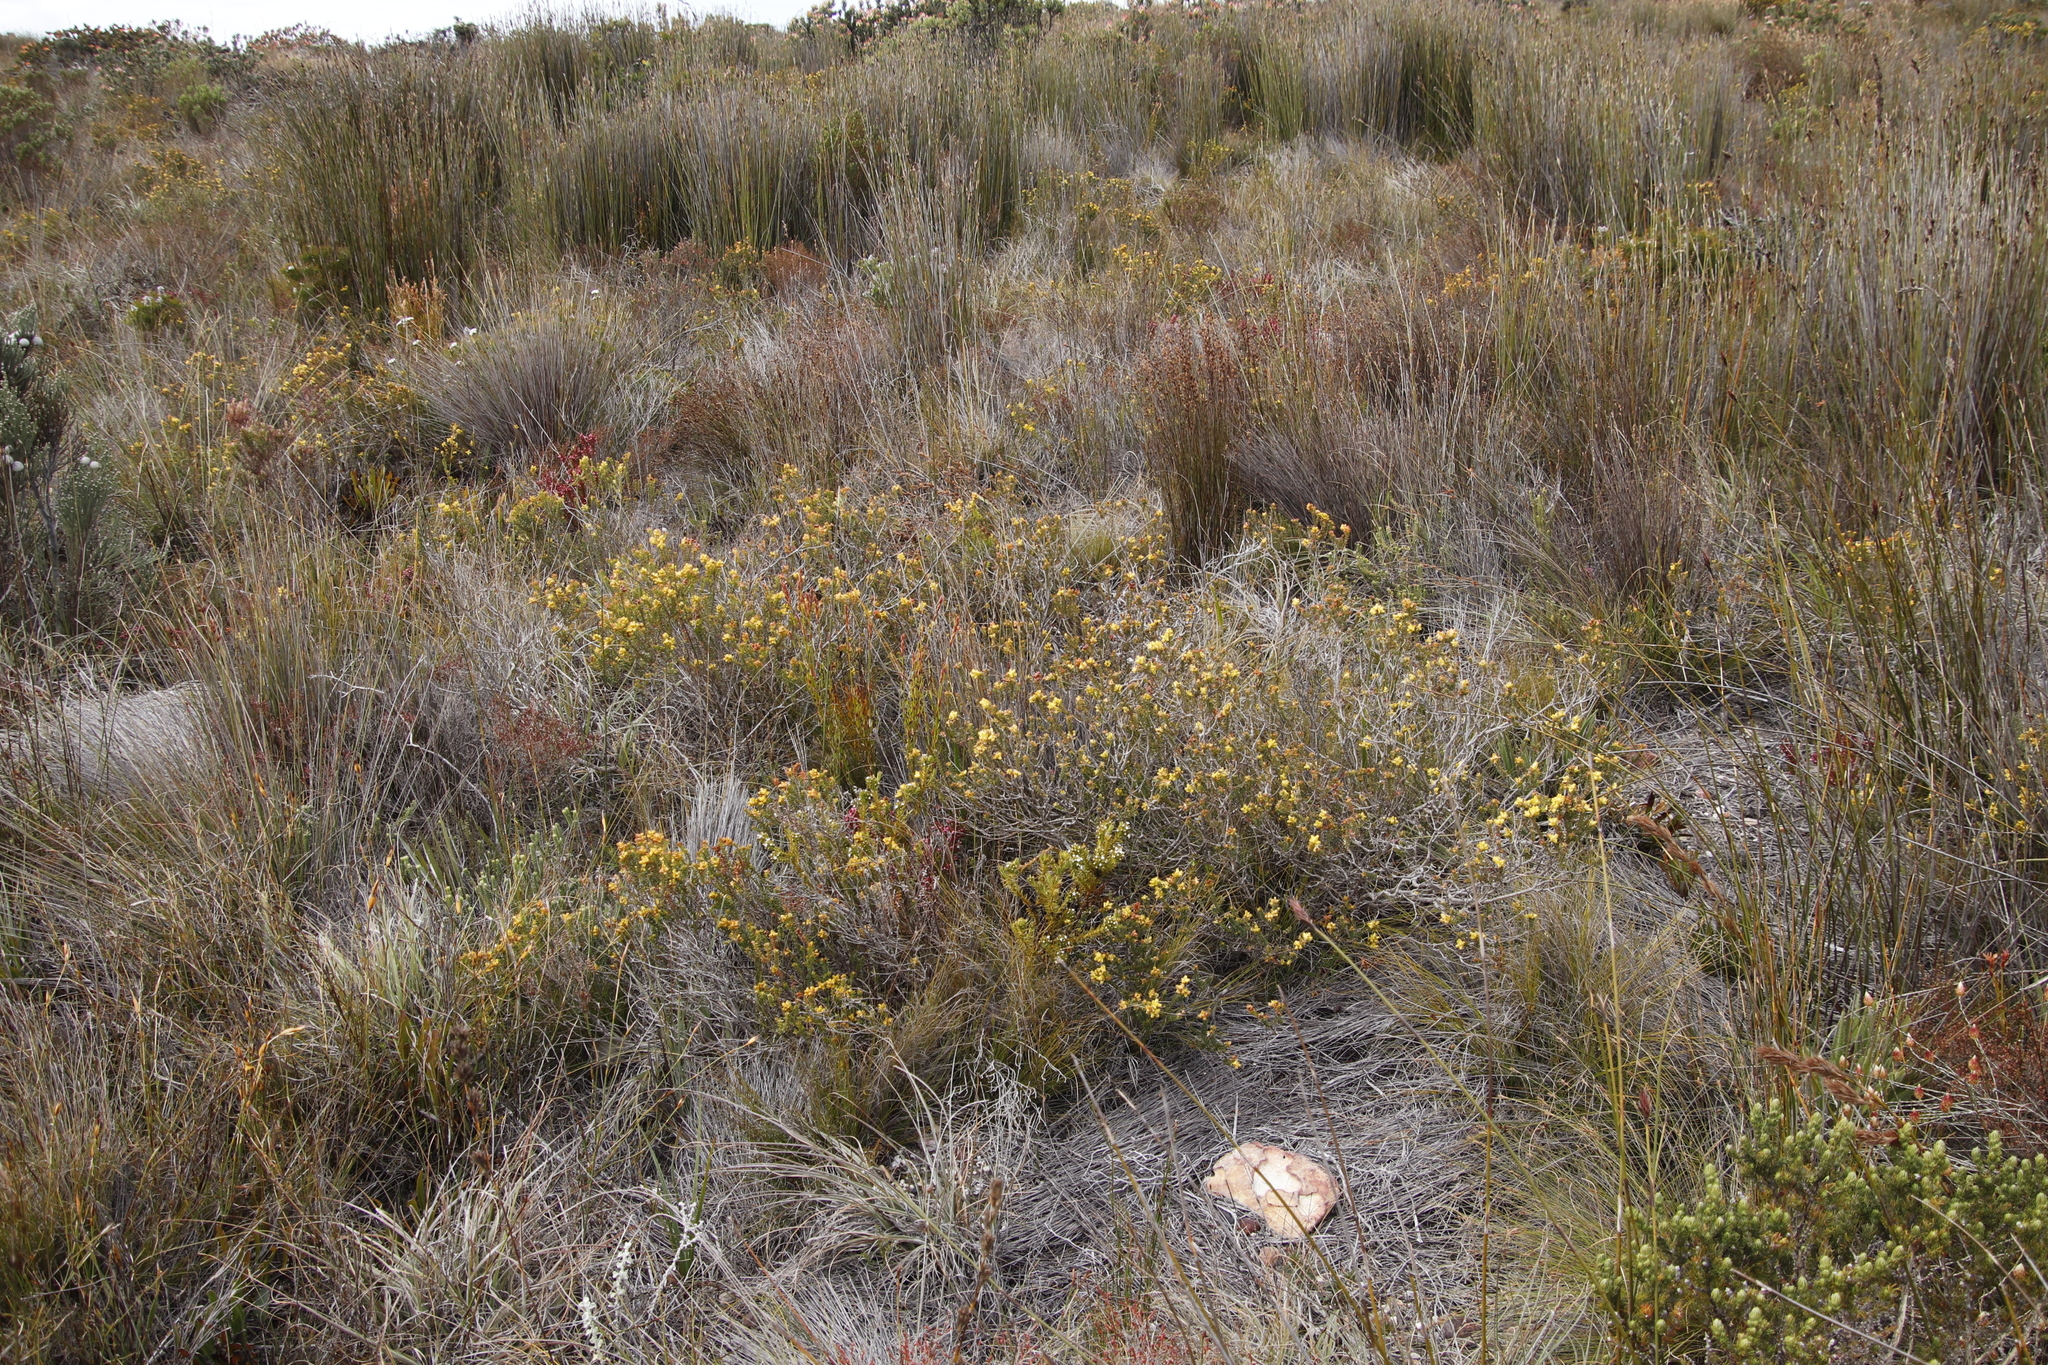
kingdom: Plantae
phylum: Tracheophyta
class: Magnoliopsida
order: Myrtales
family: Penaeaceae
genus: Penaea
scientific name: Penaea mucronata
